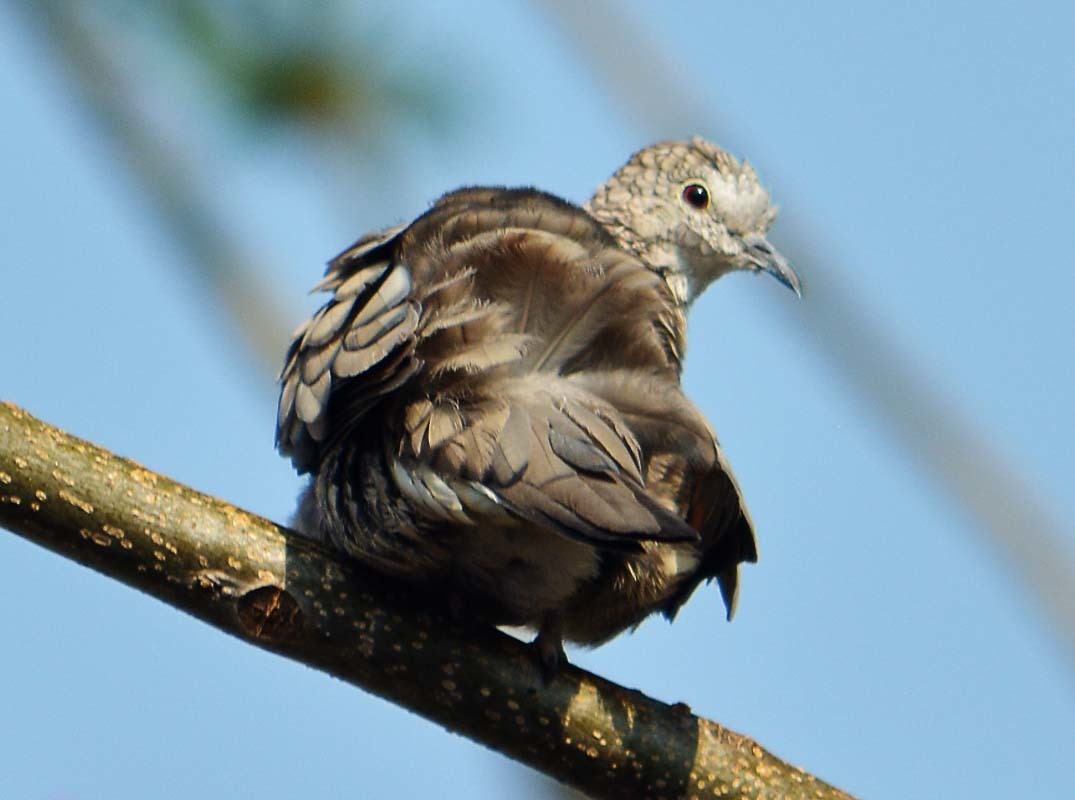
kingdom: Animalia
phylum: Chordata
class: Aves
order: Columbiformes
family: Columbidae
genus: Columbina
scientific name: Columbina inca
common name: Inca dove
